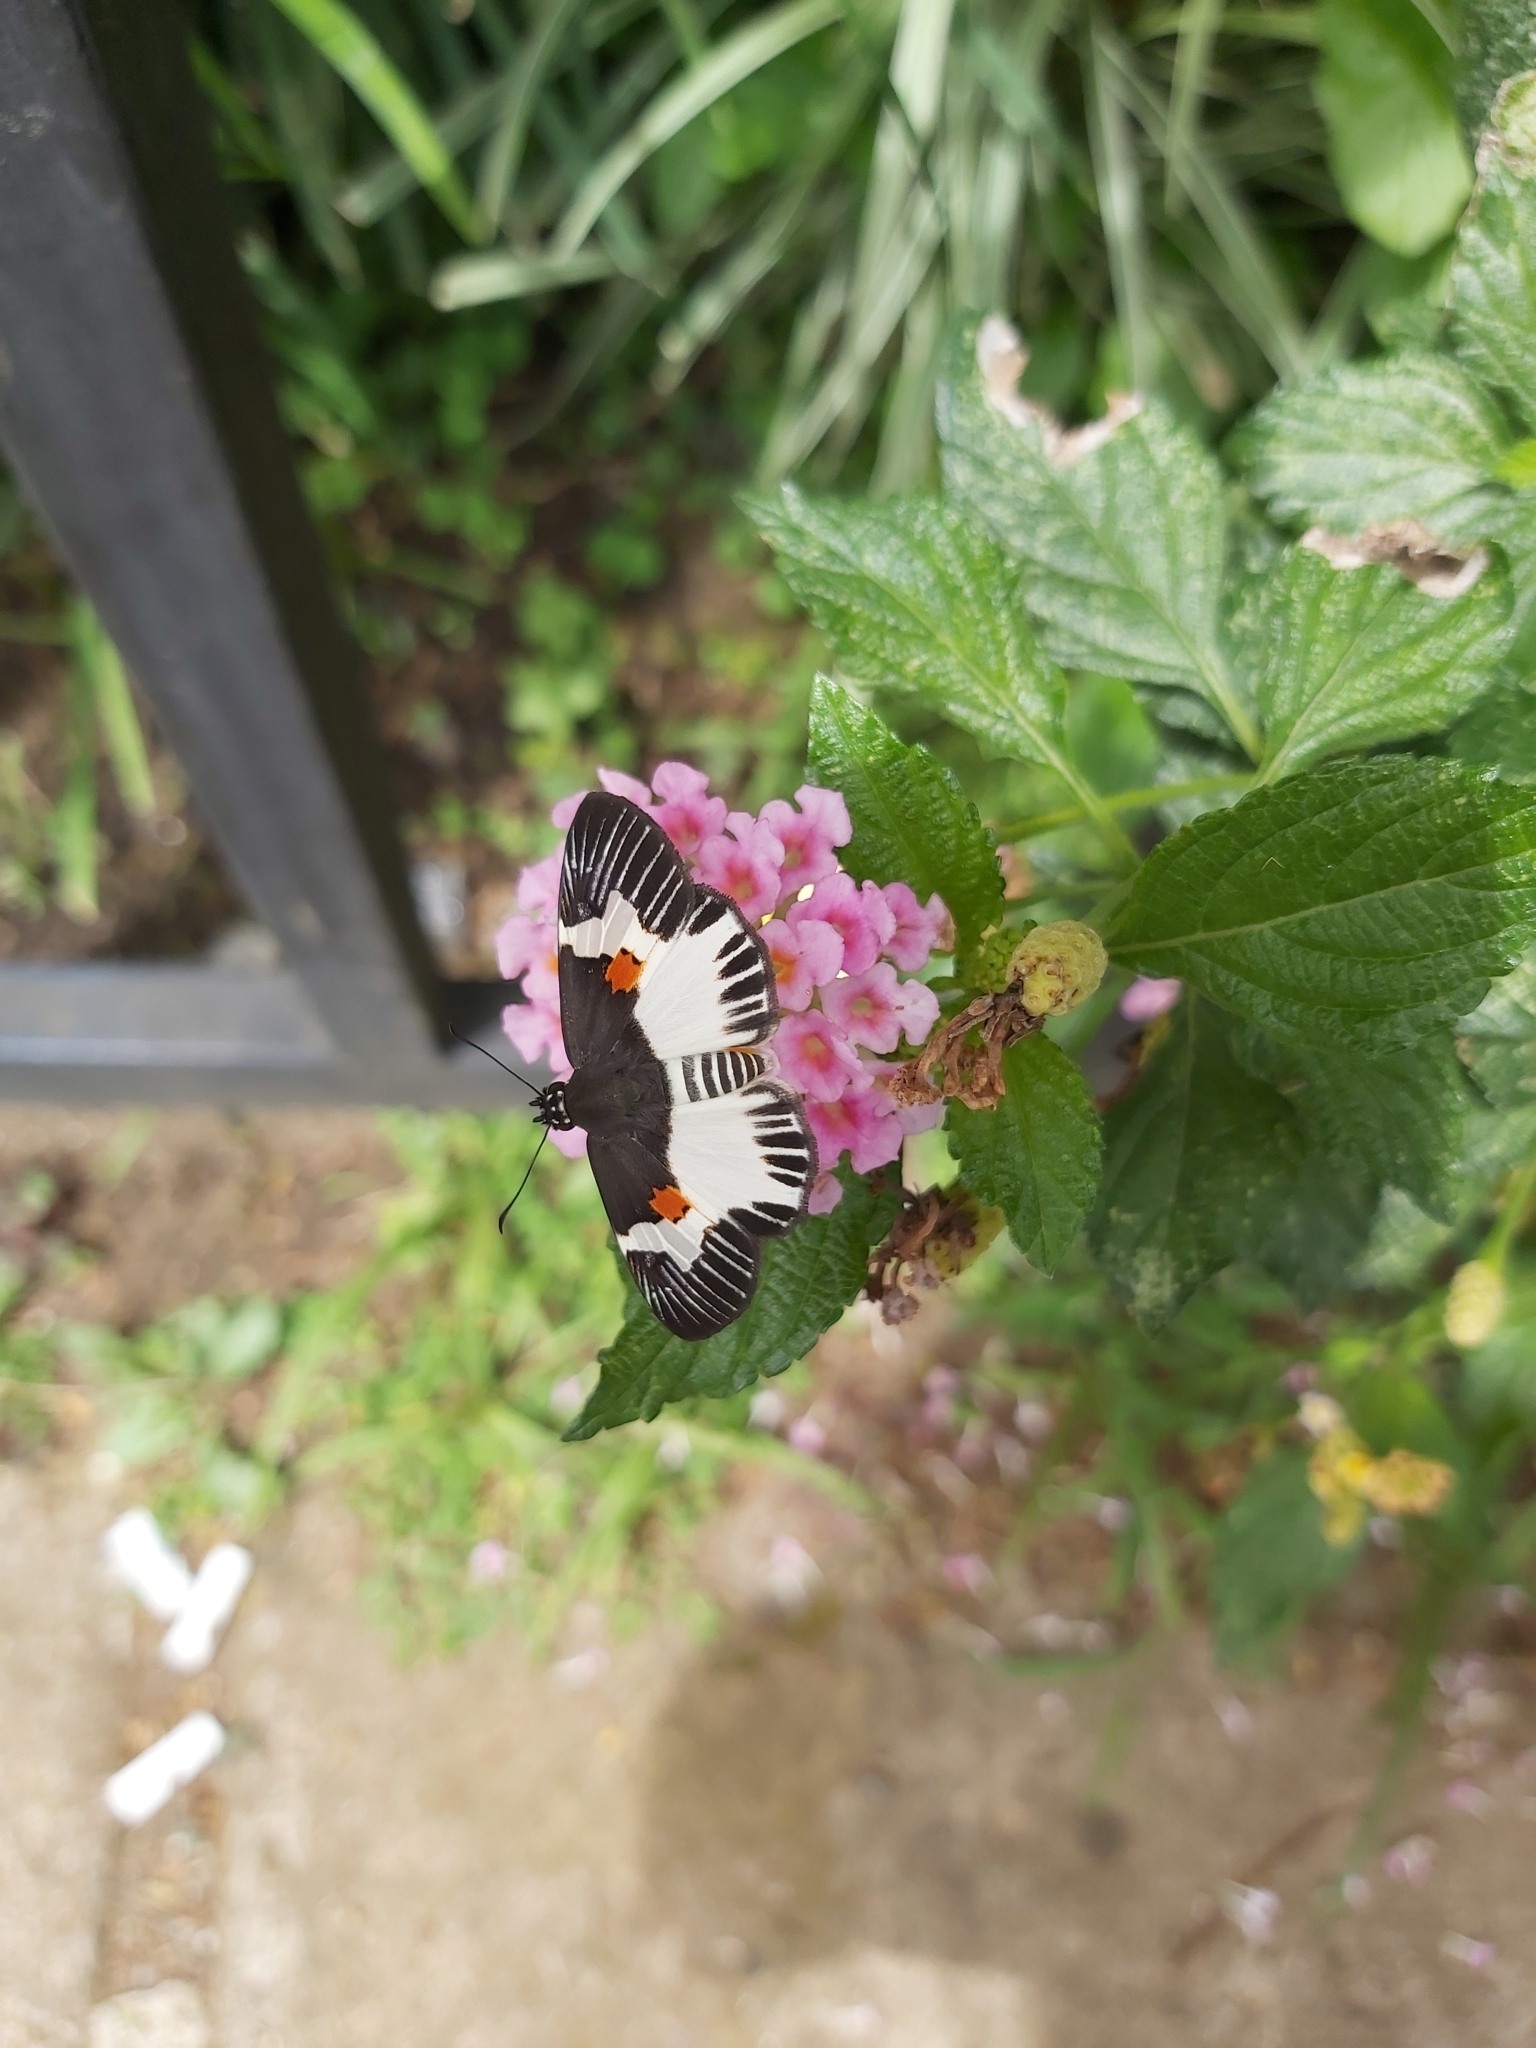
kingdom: Animalia
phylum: Arthropoda
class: Insecta
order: Lepidoptera
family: Hesperiidae
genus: Atarnes
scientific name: Atarnes sallei
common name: Orange-spotted skipper
